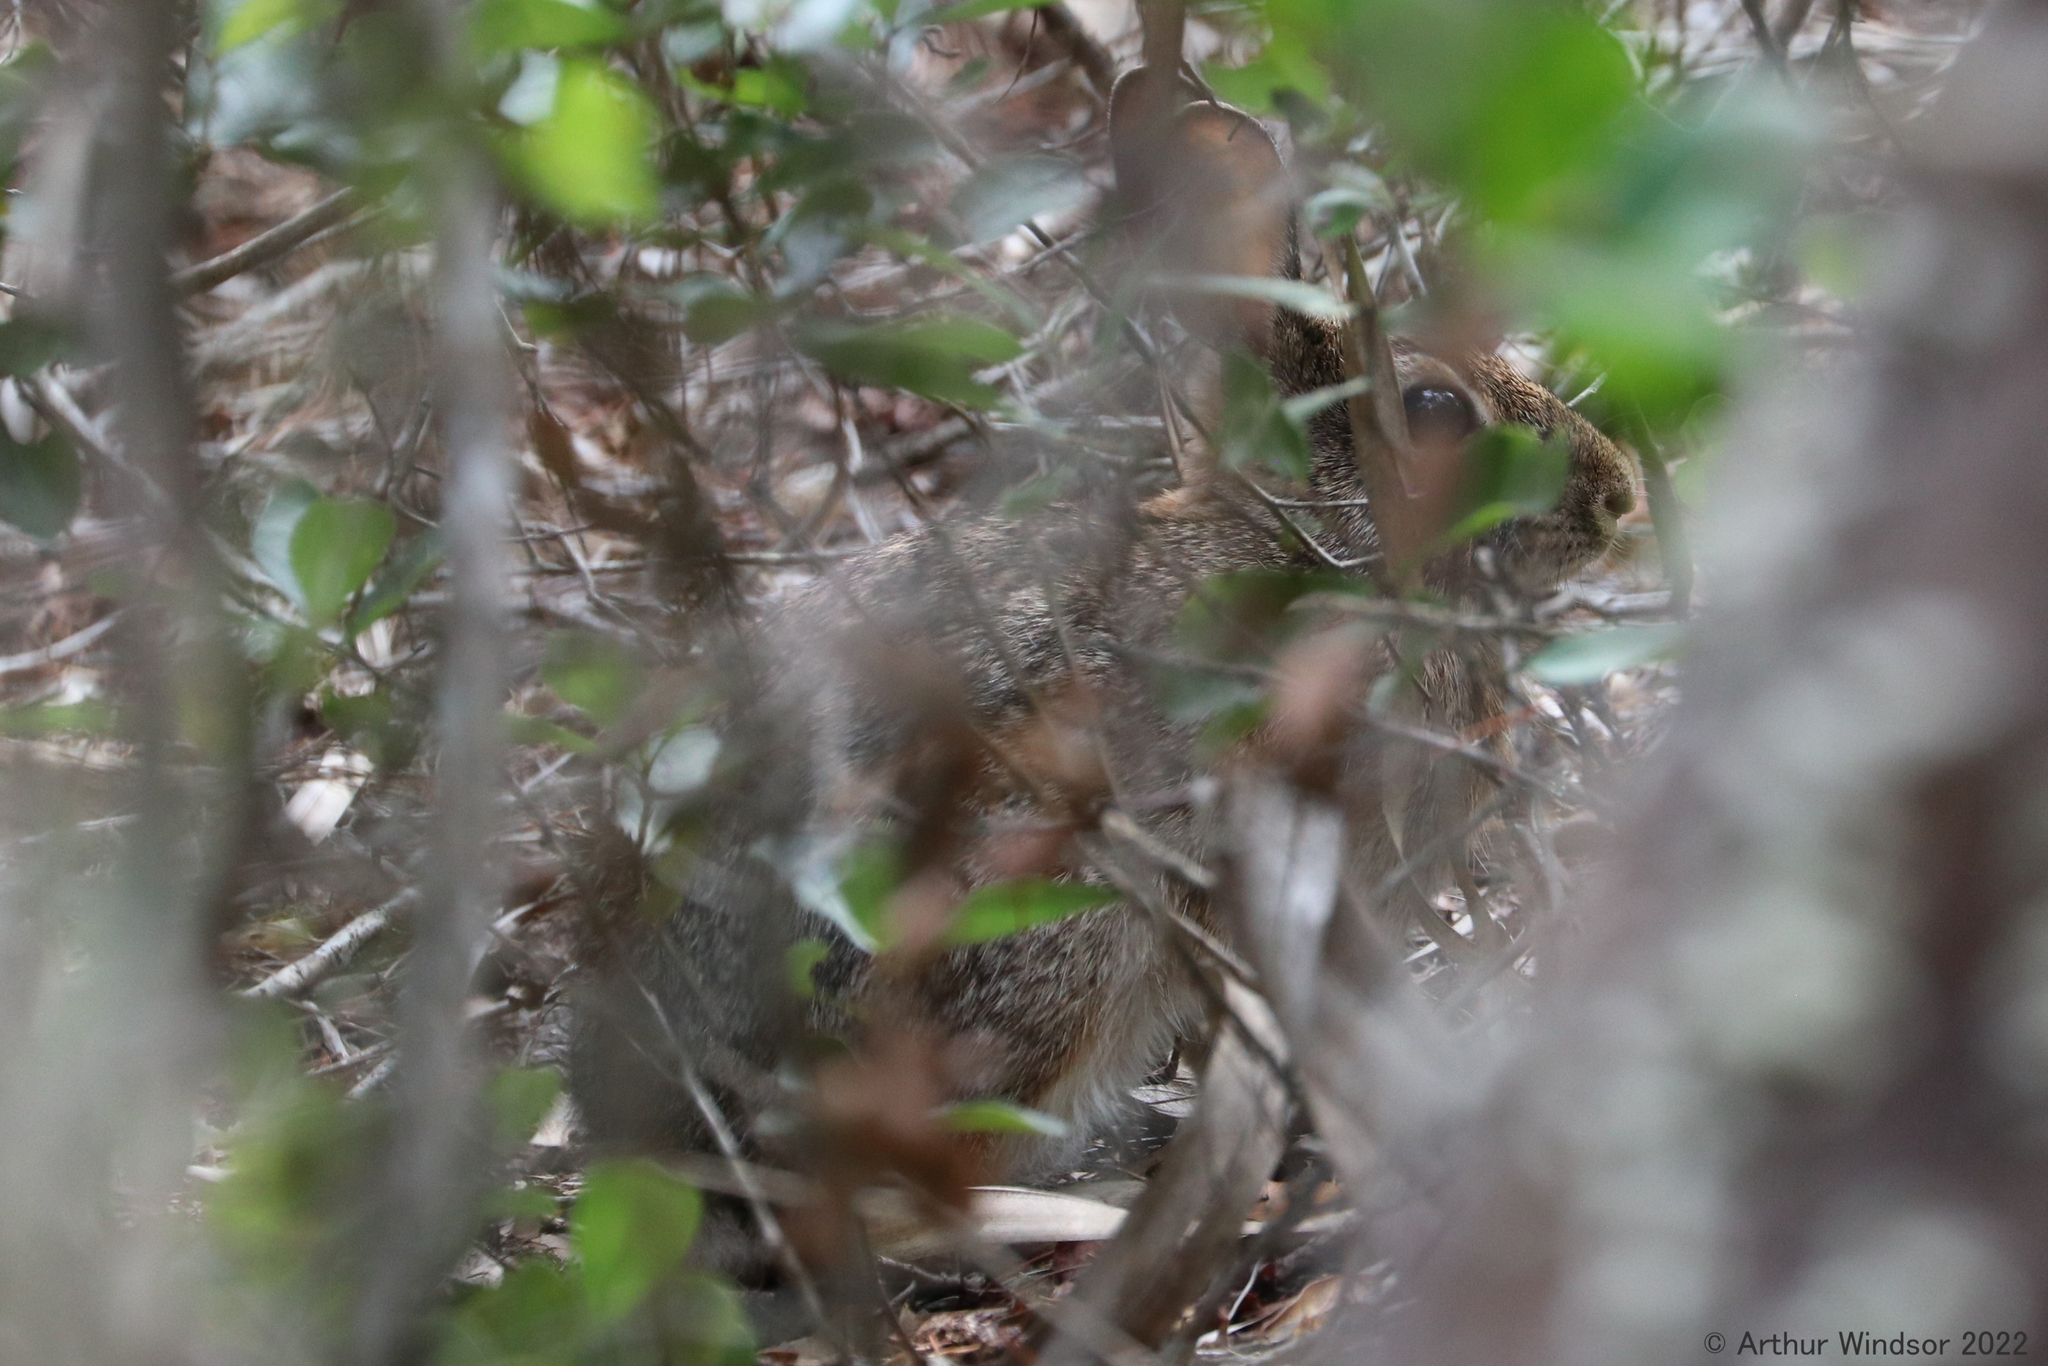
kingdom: Animalia
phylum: Chordata
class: Mammalia
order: Lagomorpha
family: Leporidae
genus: Sylvilagus
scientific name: Sylvilagus floridanus
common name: Eastern cottontail
